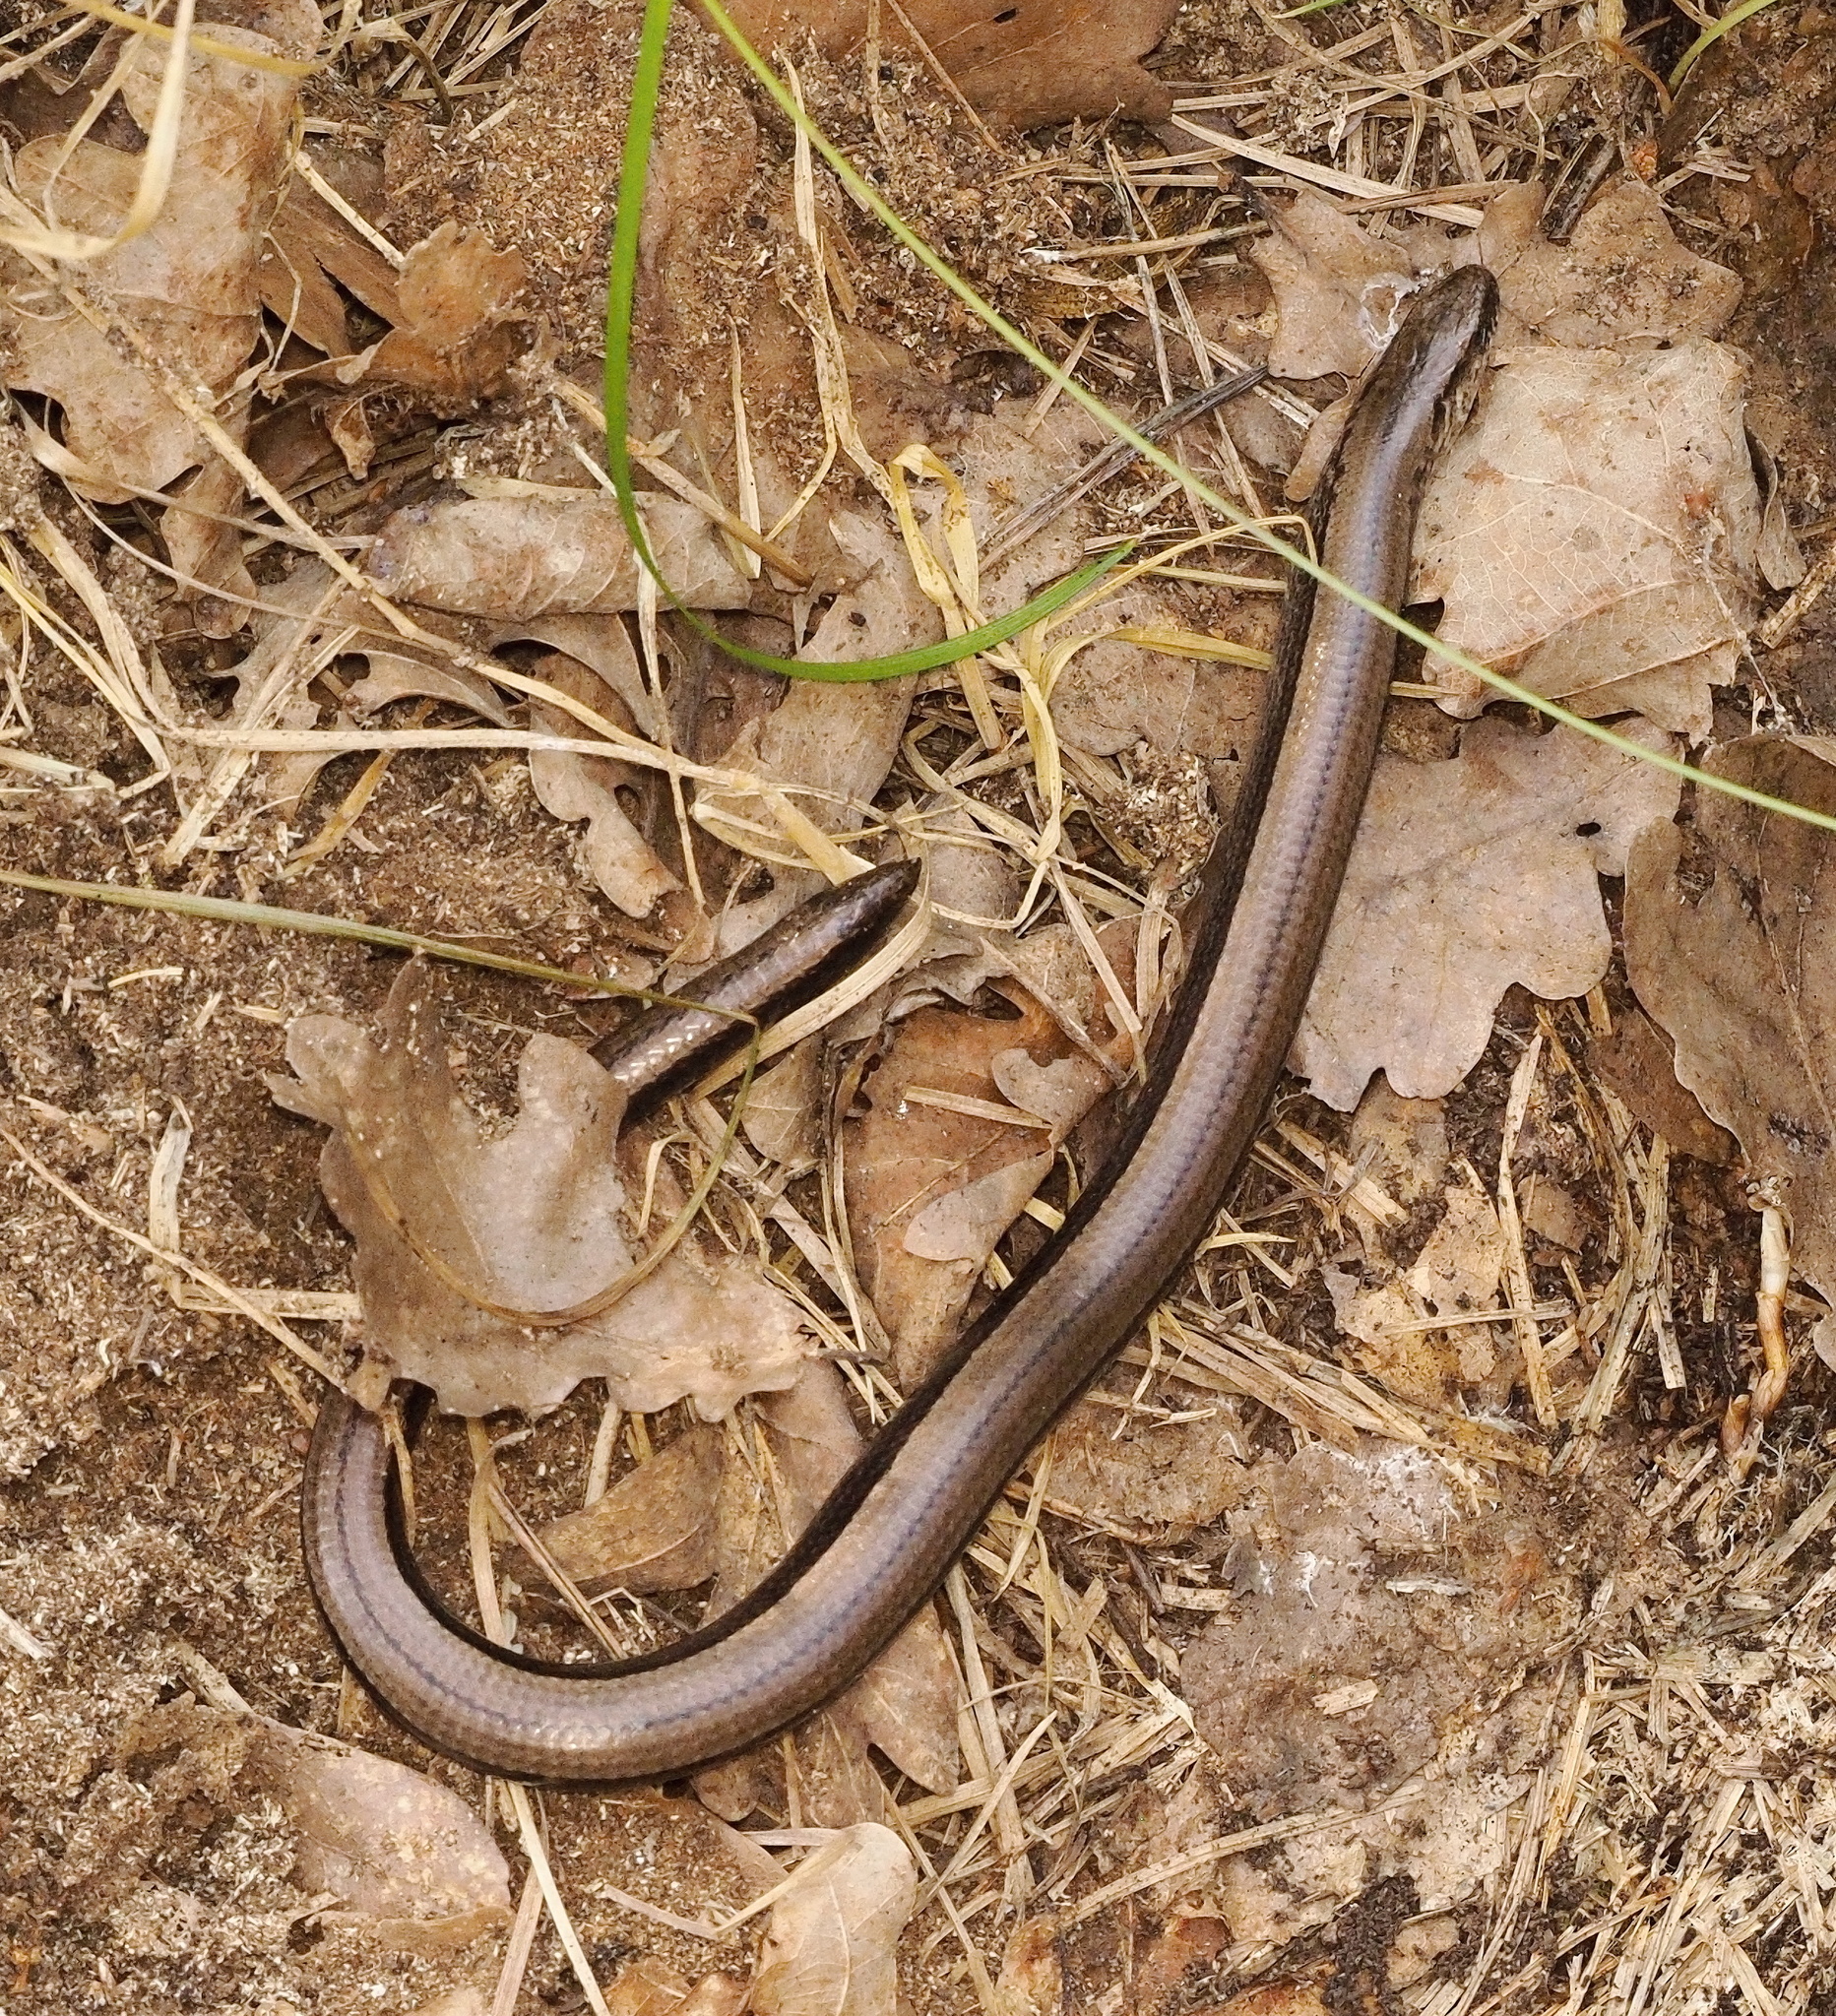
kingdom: Animalia
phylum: Chordata
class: Squamata
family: Anguidae
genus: Anguis
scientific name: Anguis fragilis
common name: Slow worm
